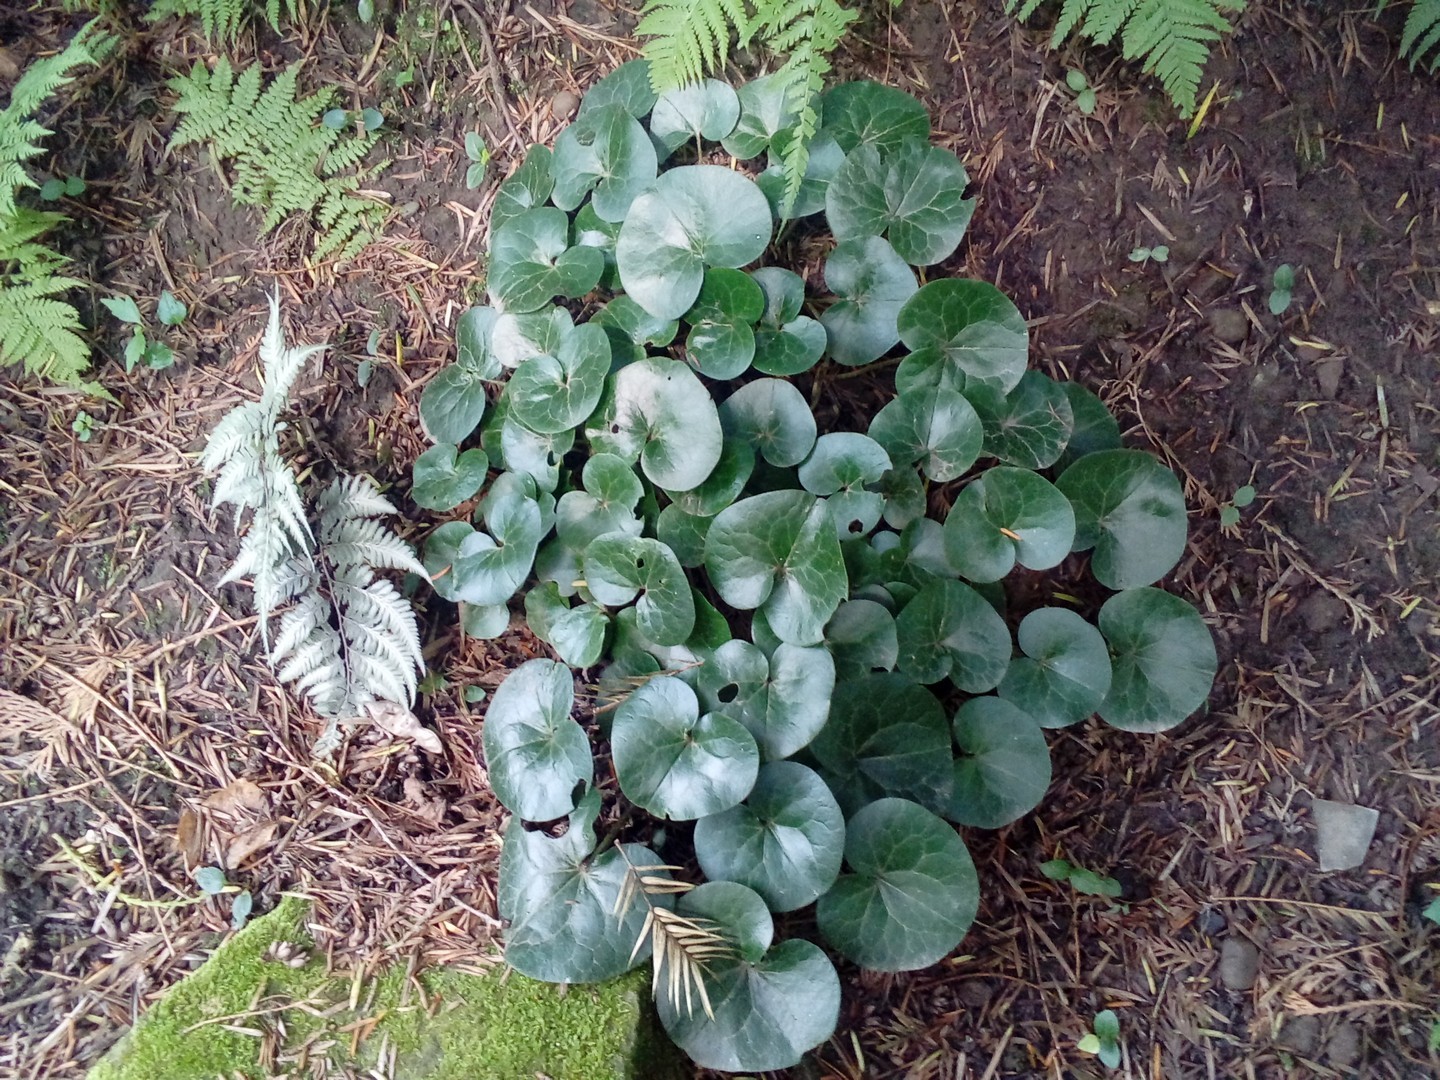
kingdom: Plantae
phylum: Tracheophyta
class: Magnoliopsida
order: Piperales
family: Aristolochiaceae
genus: Asarum
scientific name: Asarum europaeum
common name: Asarabacca
